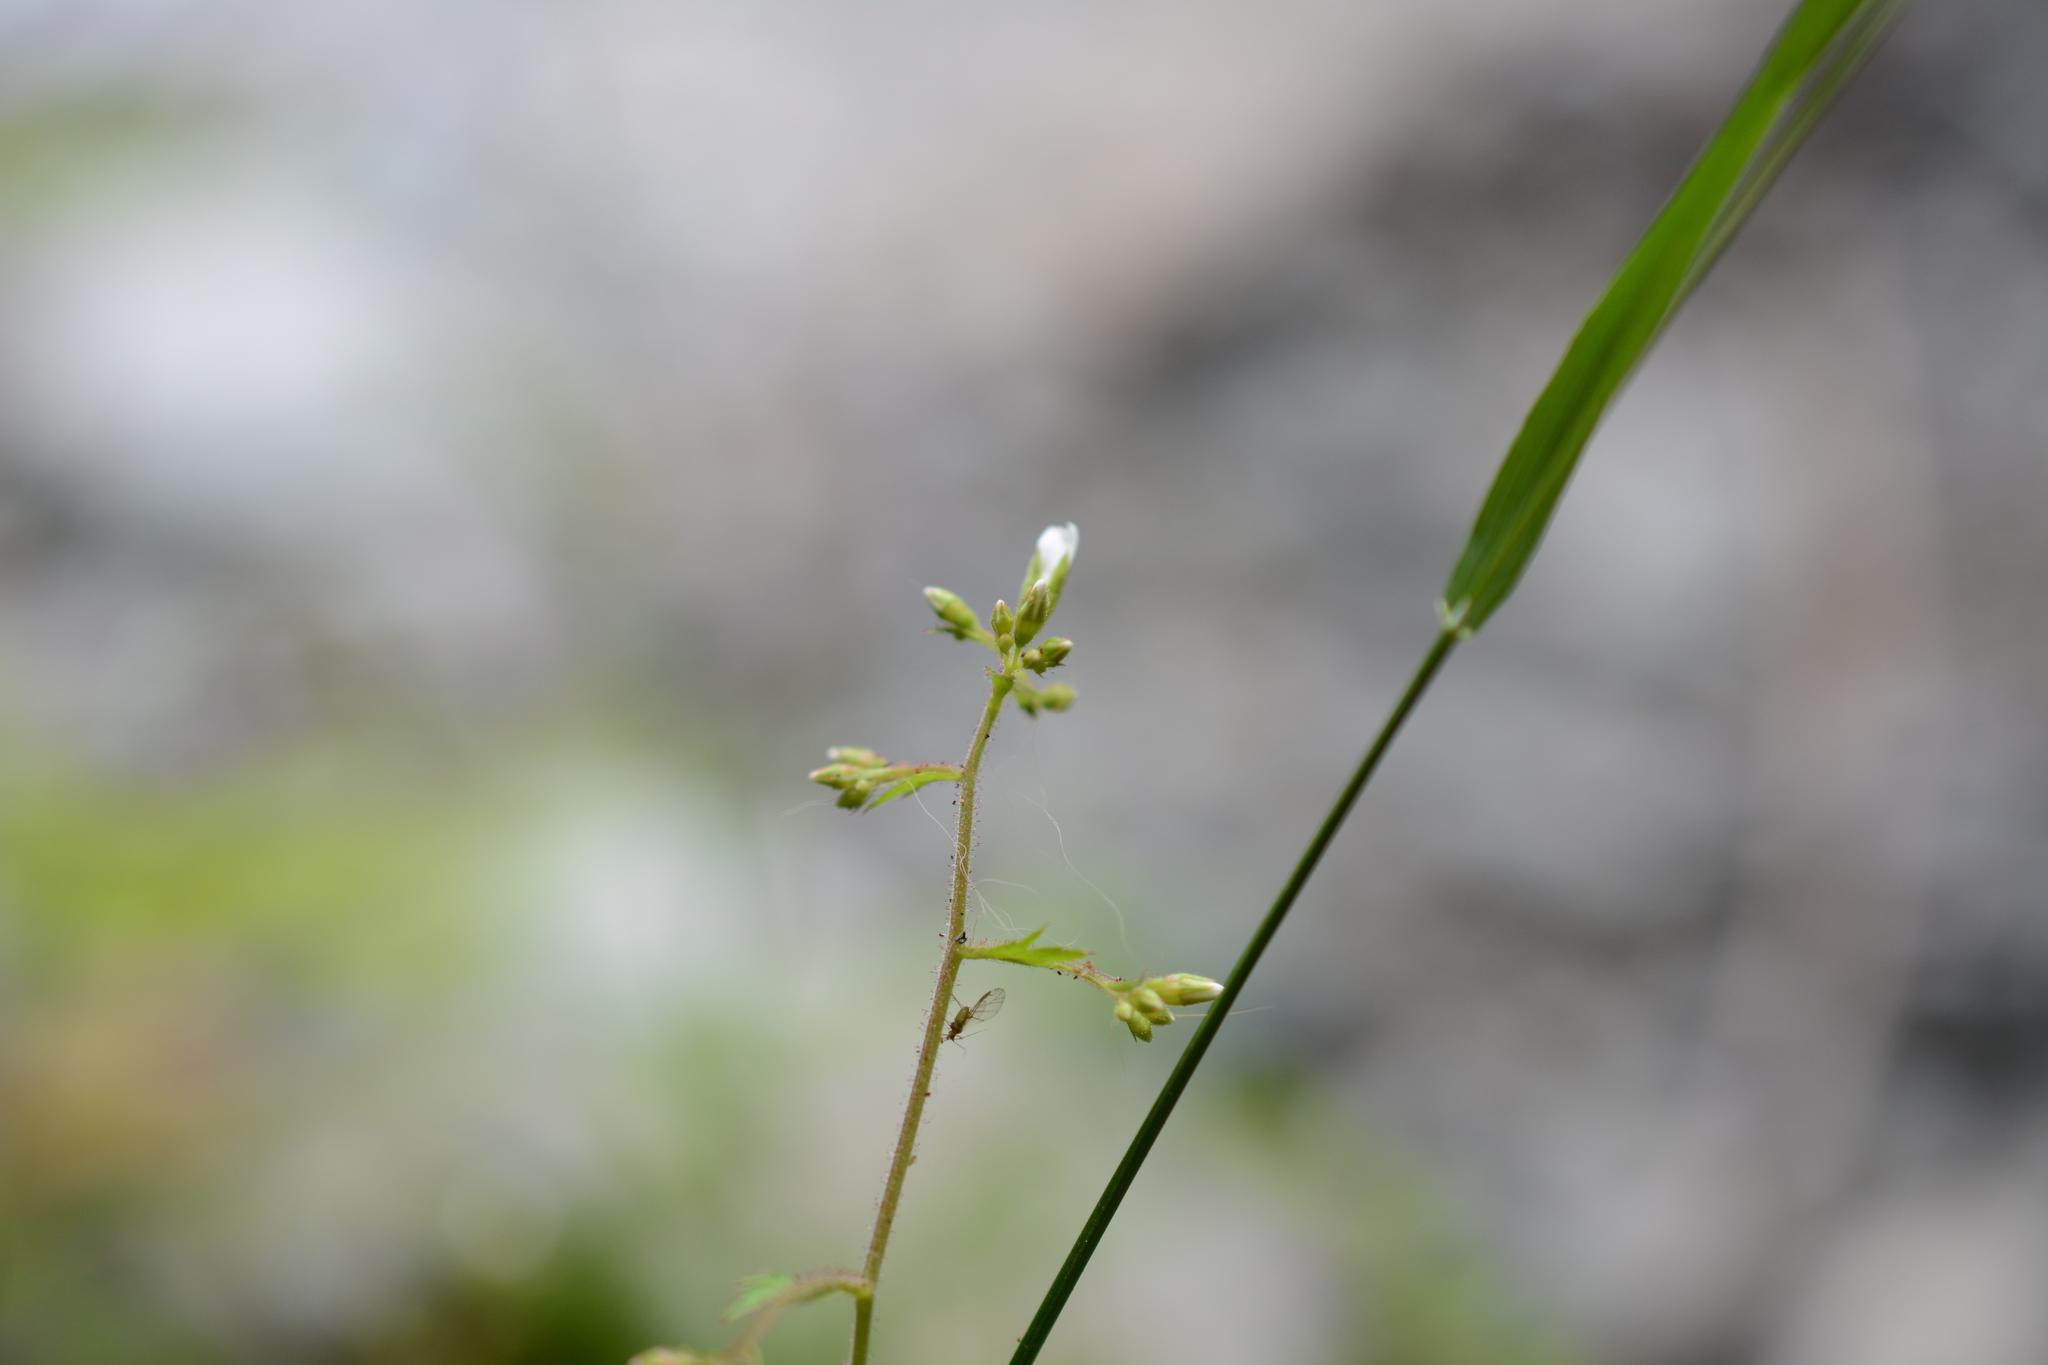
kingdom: Plantae
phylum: Tracheophyta
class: Magnoliopsida
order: Saxifragales
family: Saxifragaceae
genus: Boykinia
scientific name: Boykinia occidentalis
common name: Coast boykinia
